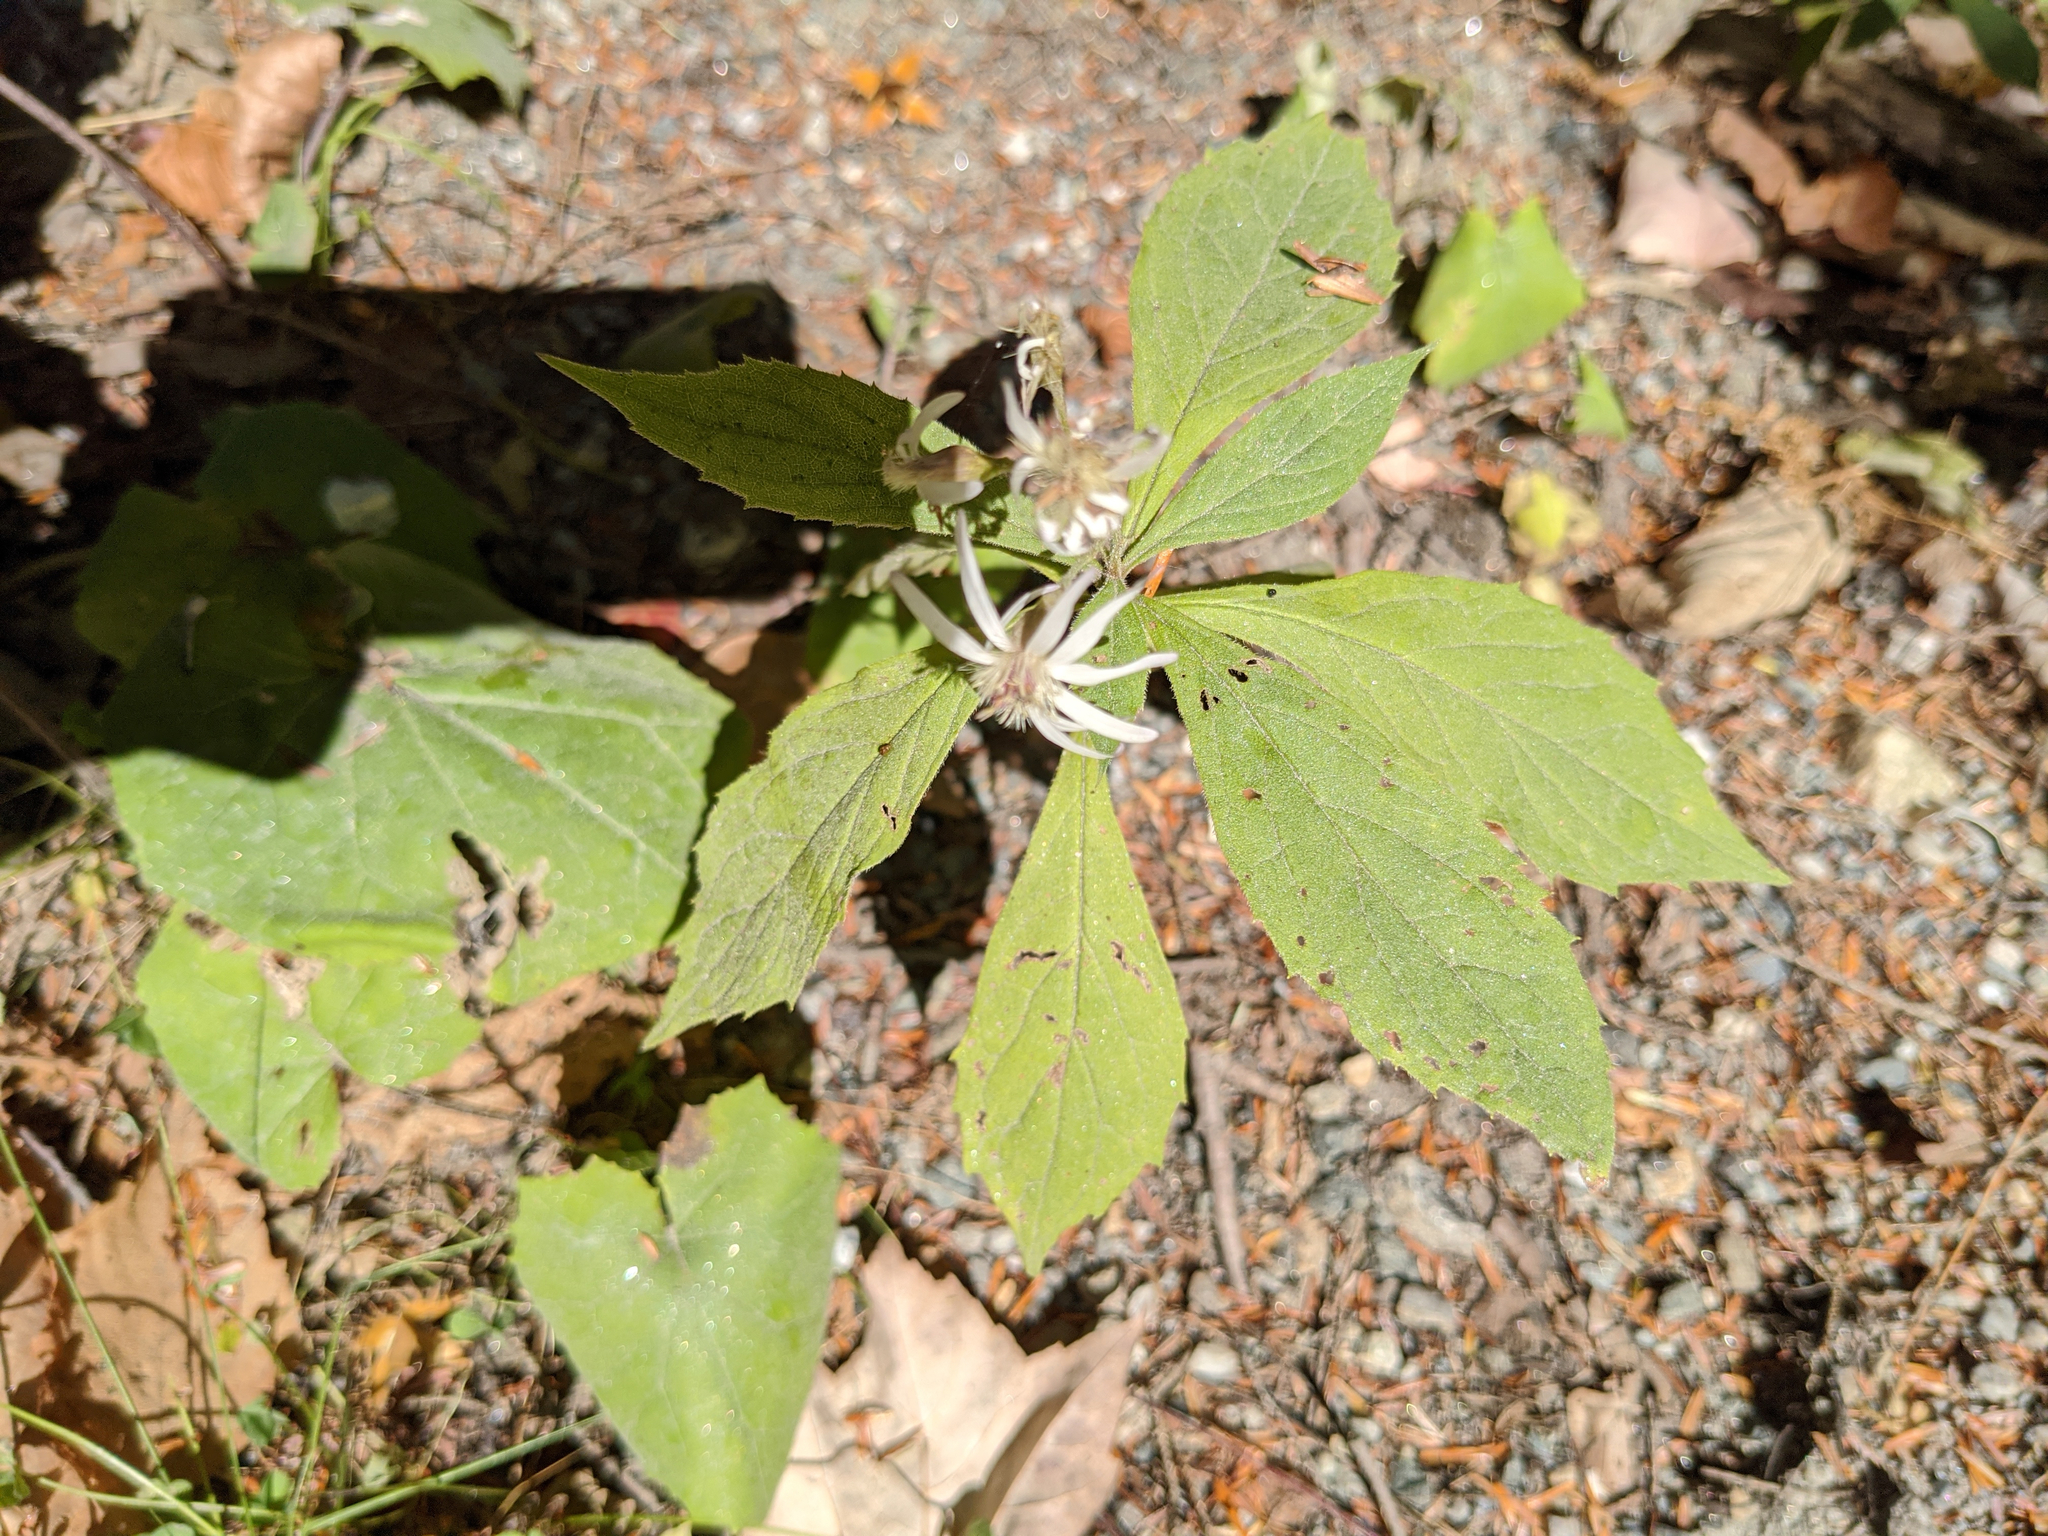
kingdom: Plantae
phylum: Tracheophyta
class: Magnoliopsida
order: Asterales
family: Asteraceae
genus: Oclemena
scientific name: Oclemena acuminata
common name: Mountain aster
